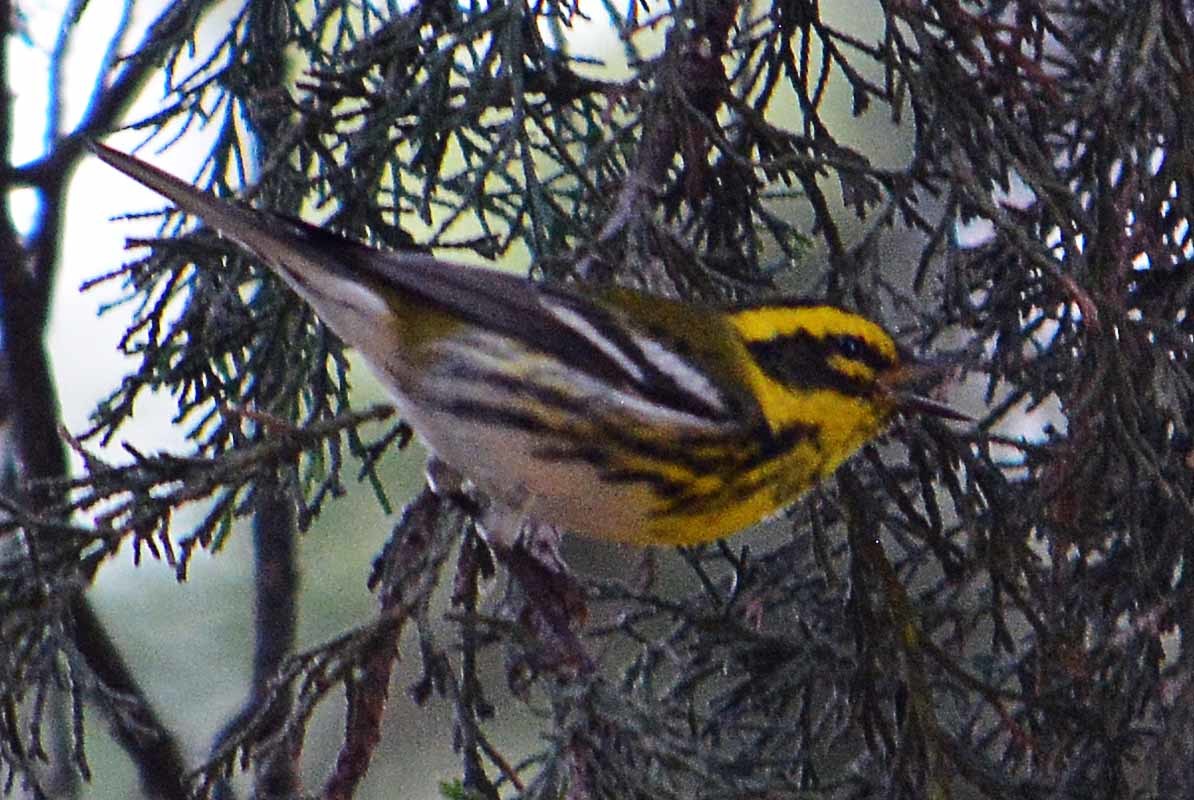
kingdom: Animalia
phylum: Chordata
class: Aves
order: Passeriformes
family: Parulidae
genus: Setophaga
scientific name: Setophaga townsendi
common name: Townsend's warbler
